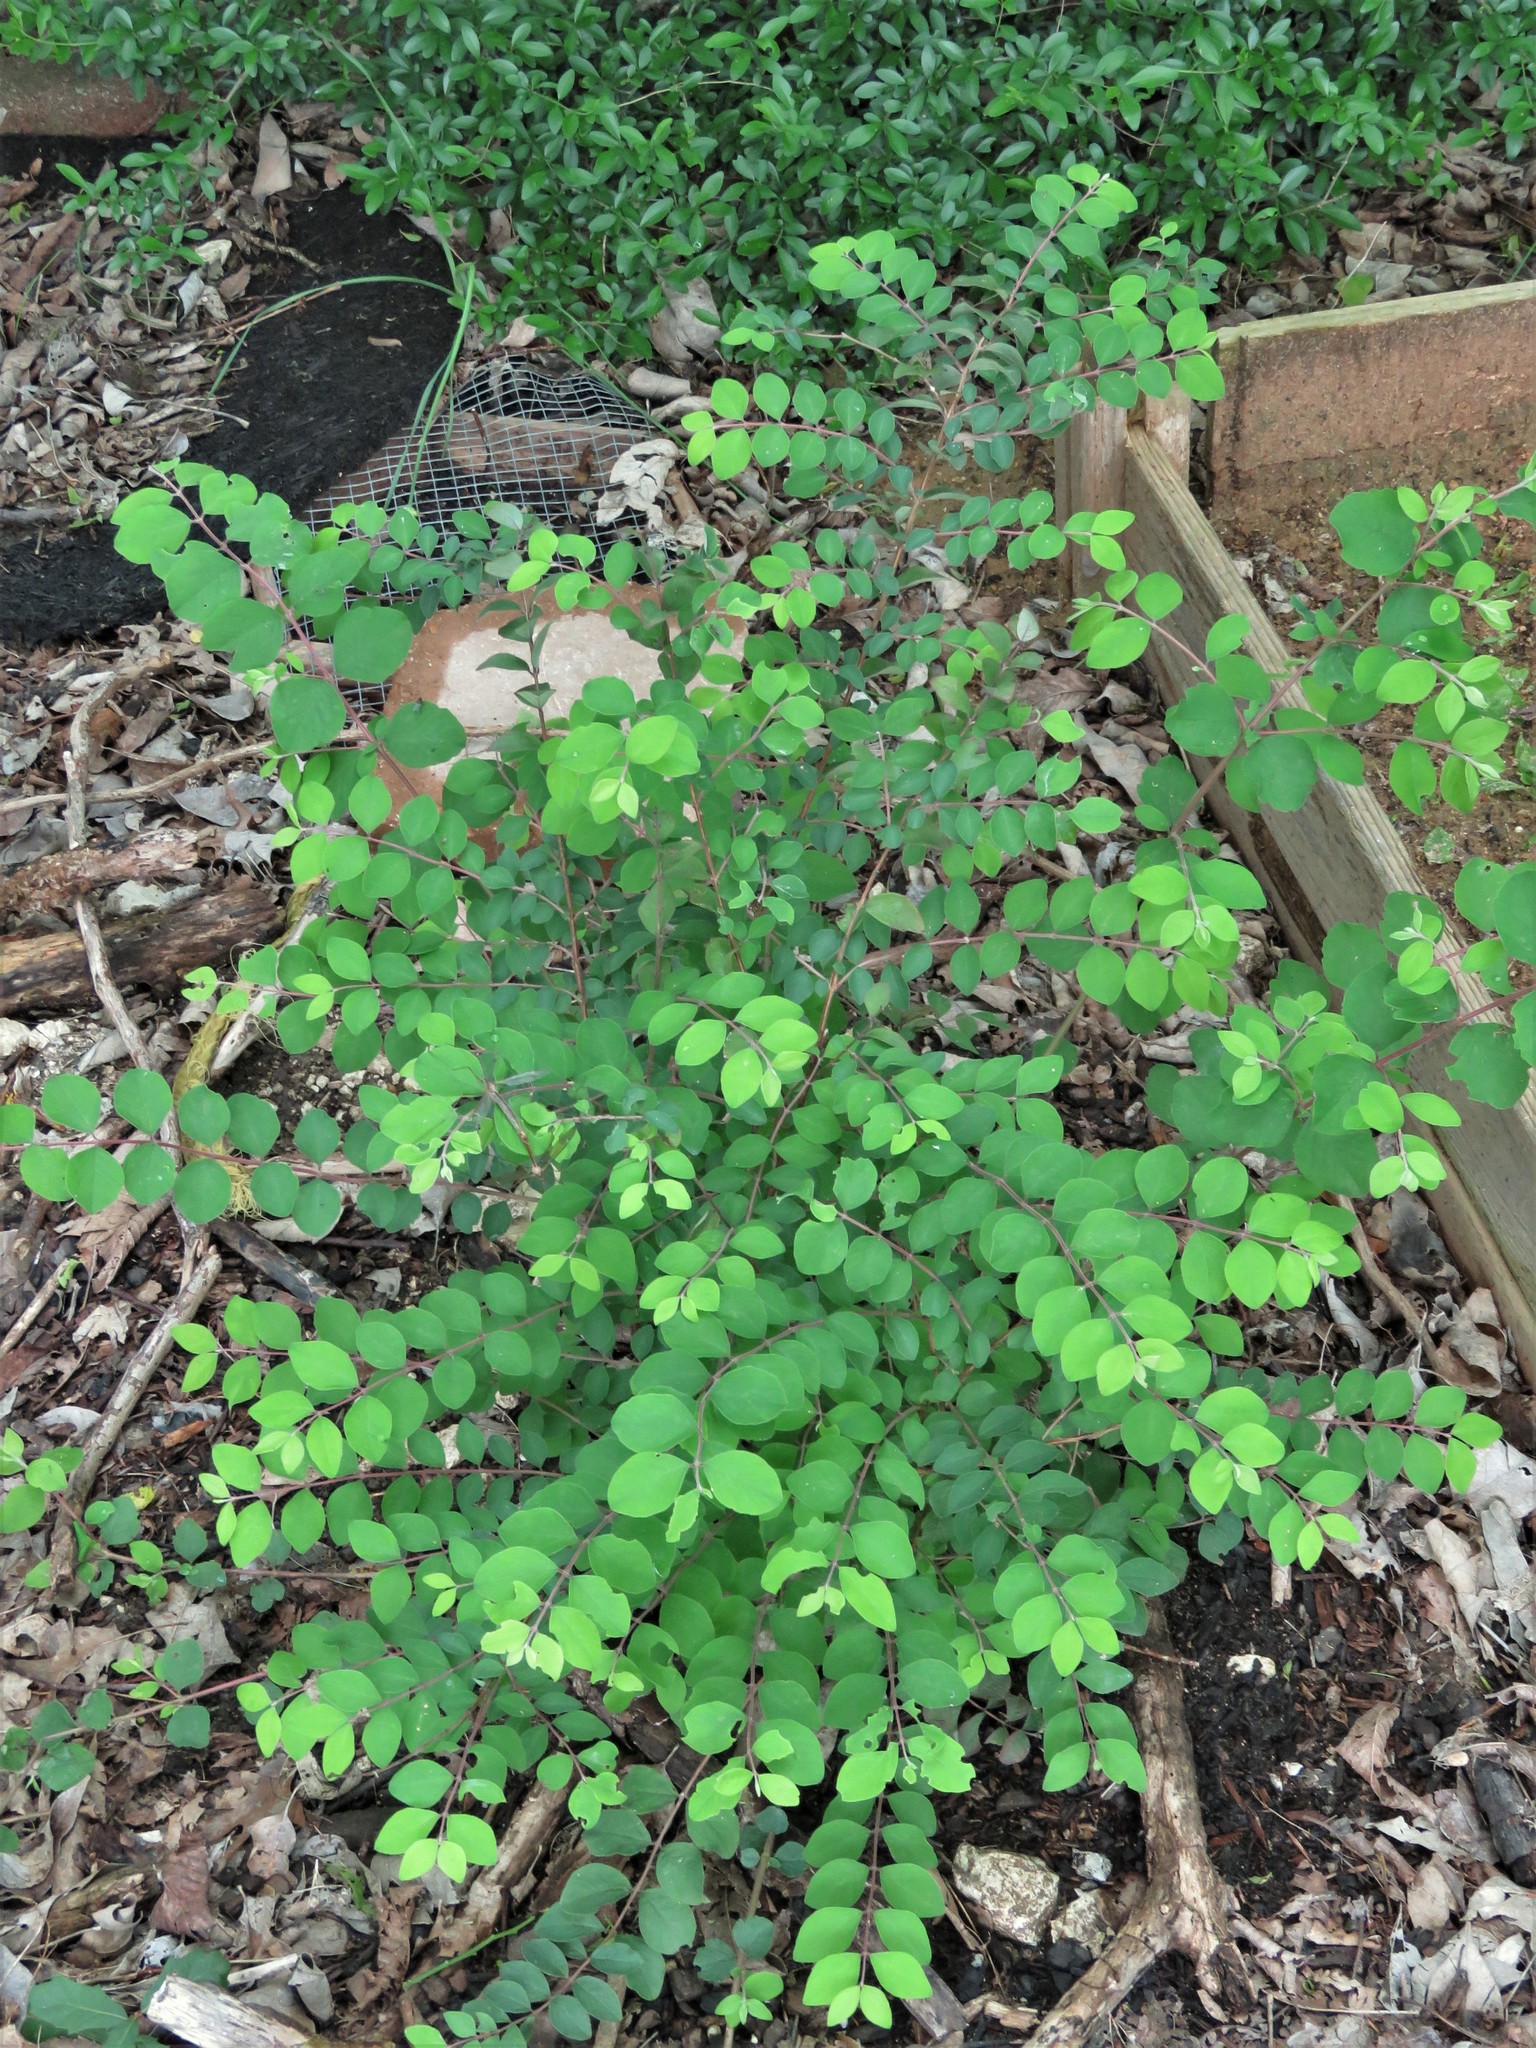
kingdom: Plantae
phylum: Tracheophyta
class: Magnoliopsida
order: Dipsacales
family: Caprifoliaceae
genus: Symphoricarpos
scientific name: Symphoricarpos orbiculatus
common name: Coralberry
